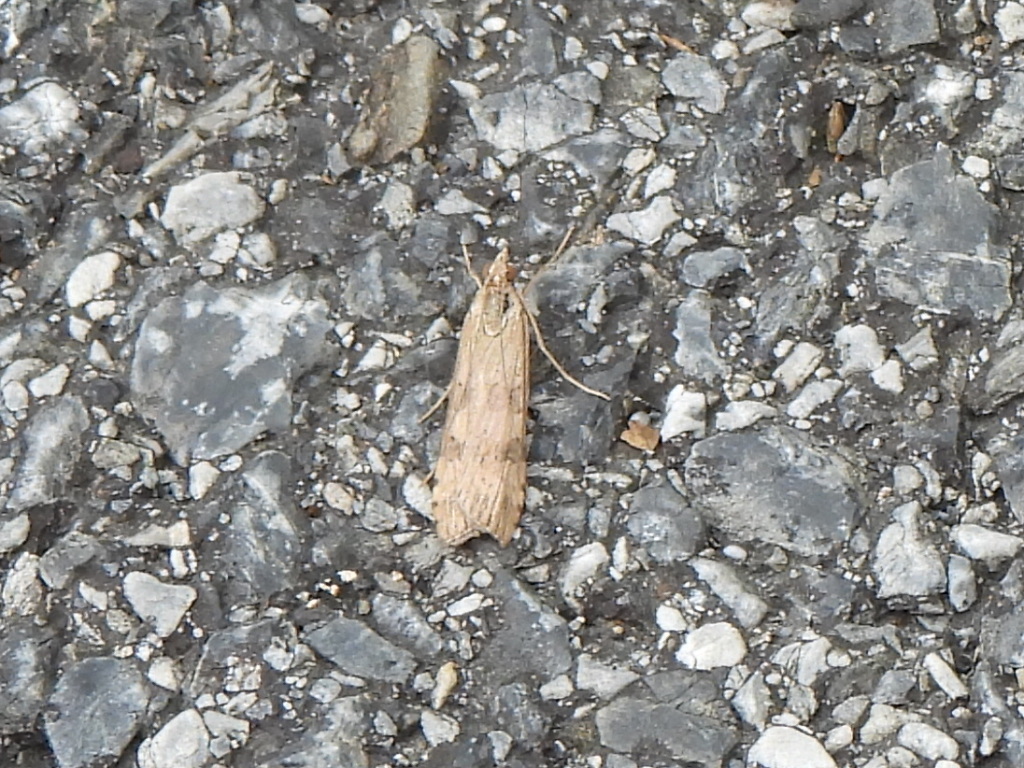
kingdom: Animalia
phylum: Arthropoda
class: Insecta
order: Lepidoptera
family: Crambidae
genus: Nomophila
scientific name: Nomophila nearctica
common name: American rush veneer
